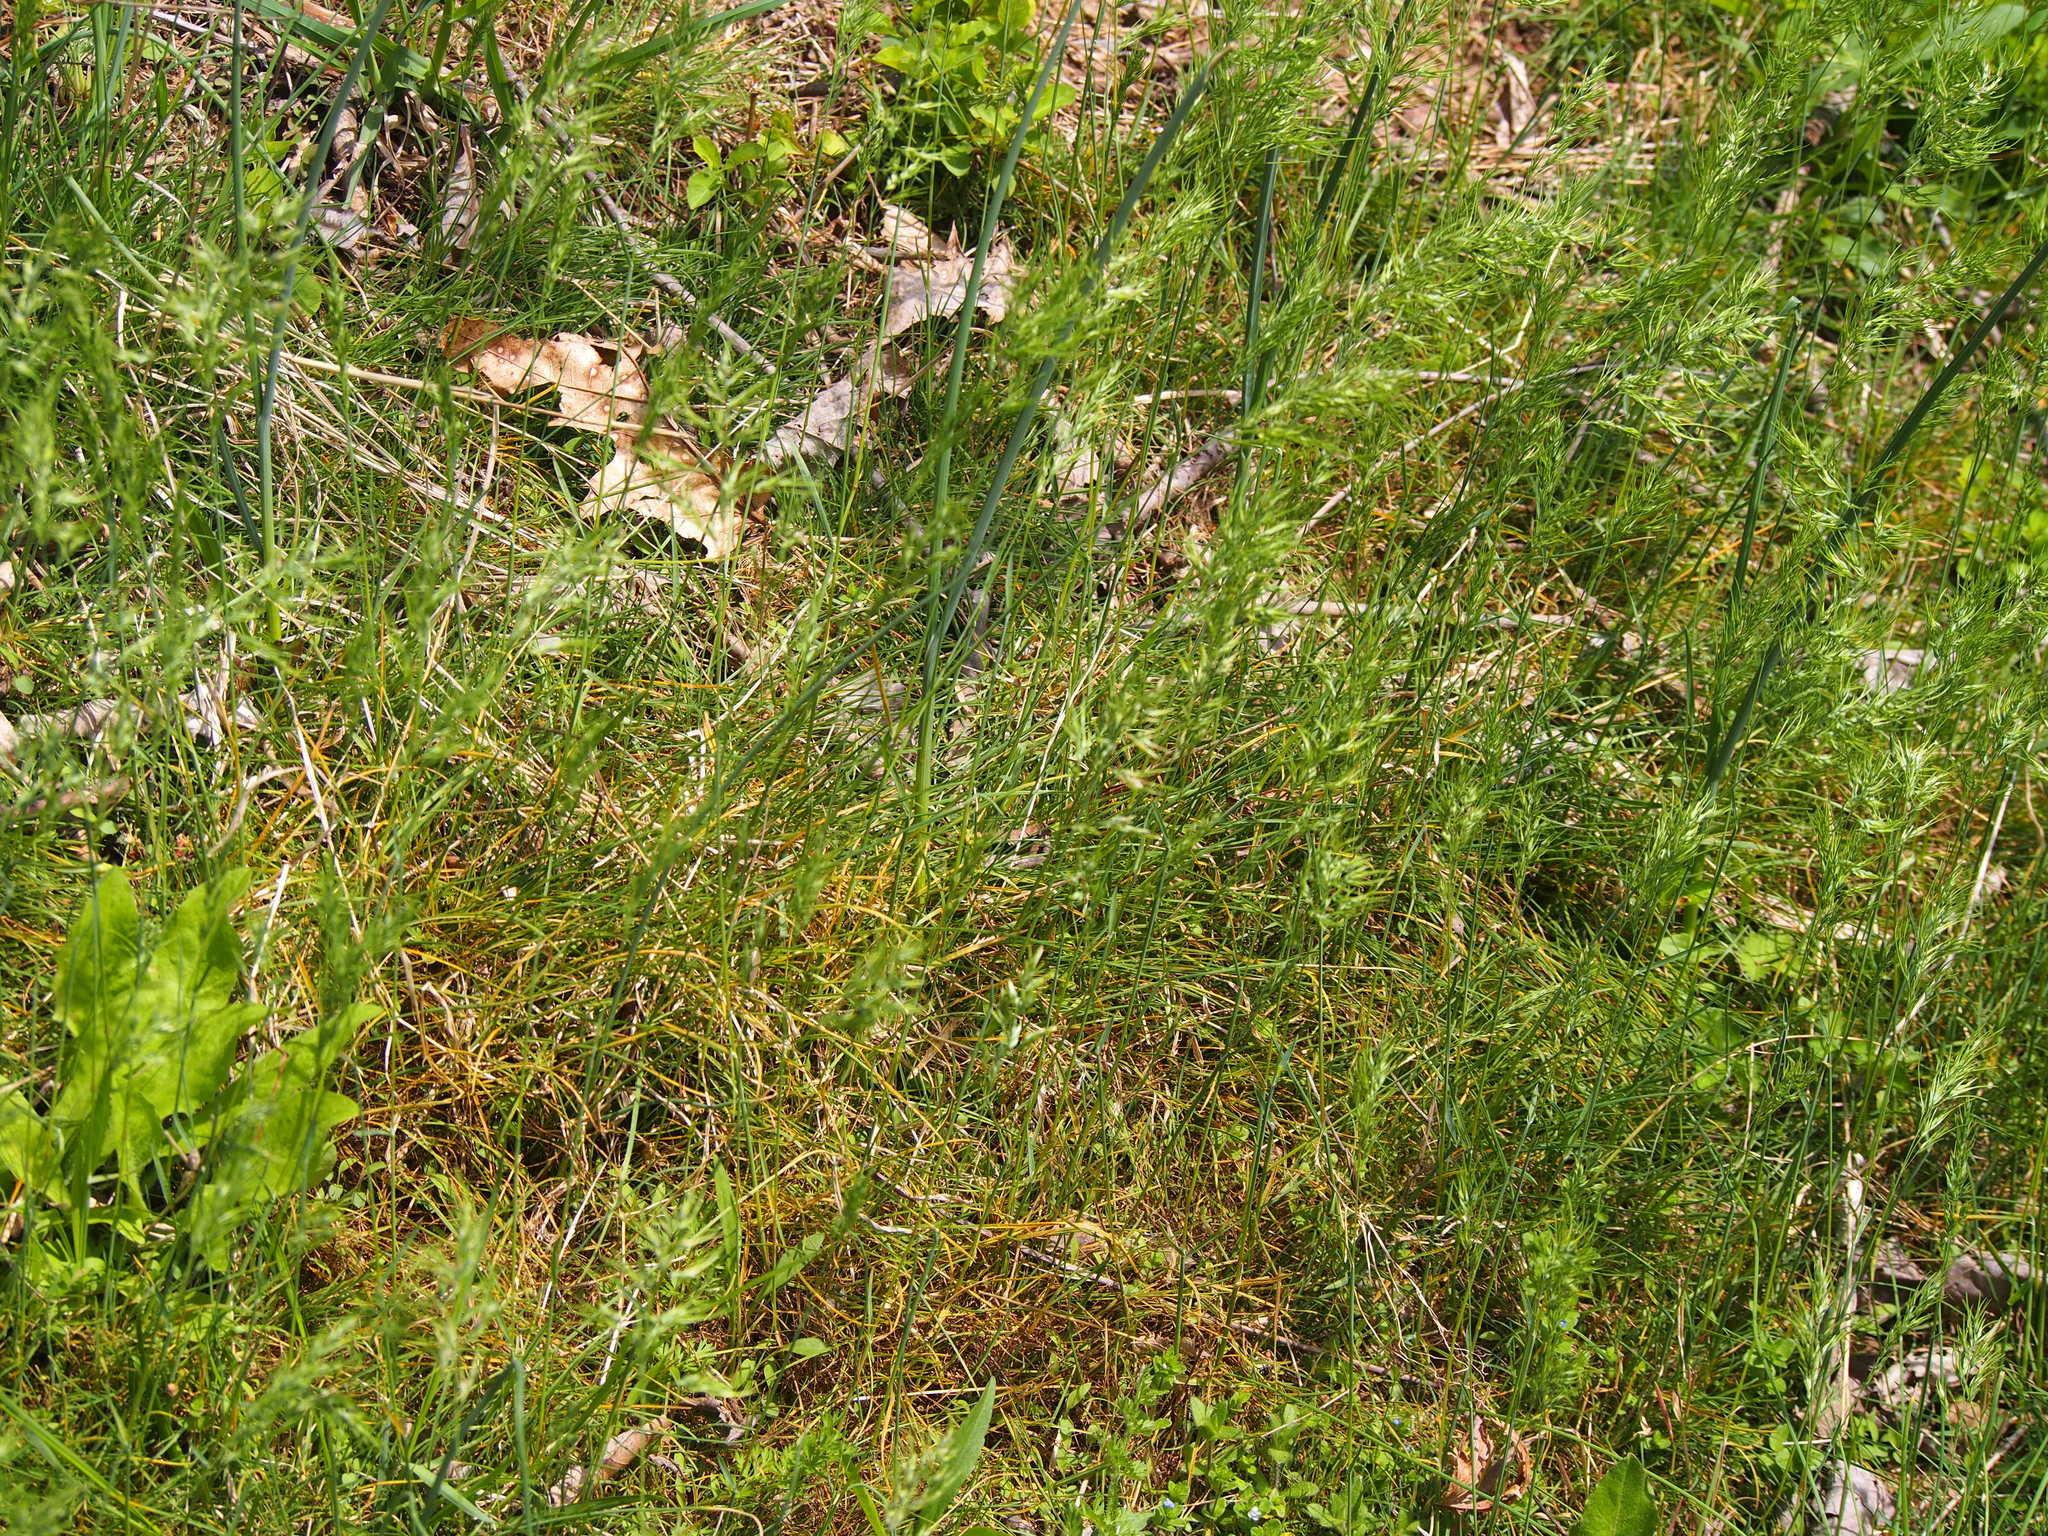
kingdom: Plantae
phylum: Tracheophyta
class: Liliopsida
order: Poales
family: Poaceae
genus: Poa
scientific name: Poa bulbosa
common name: Bulbous bluegrass
